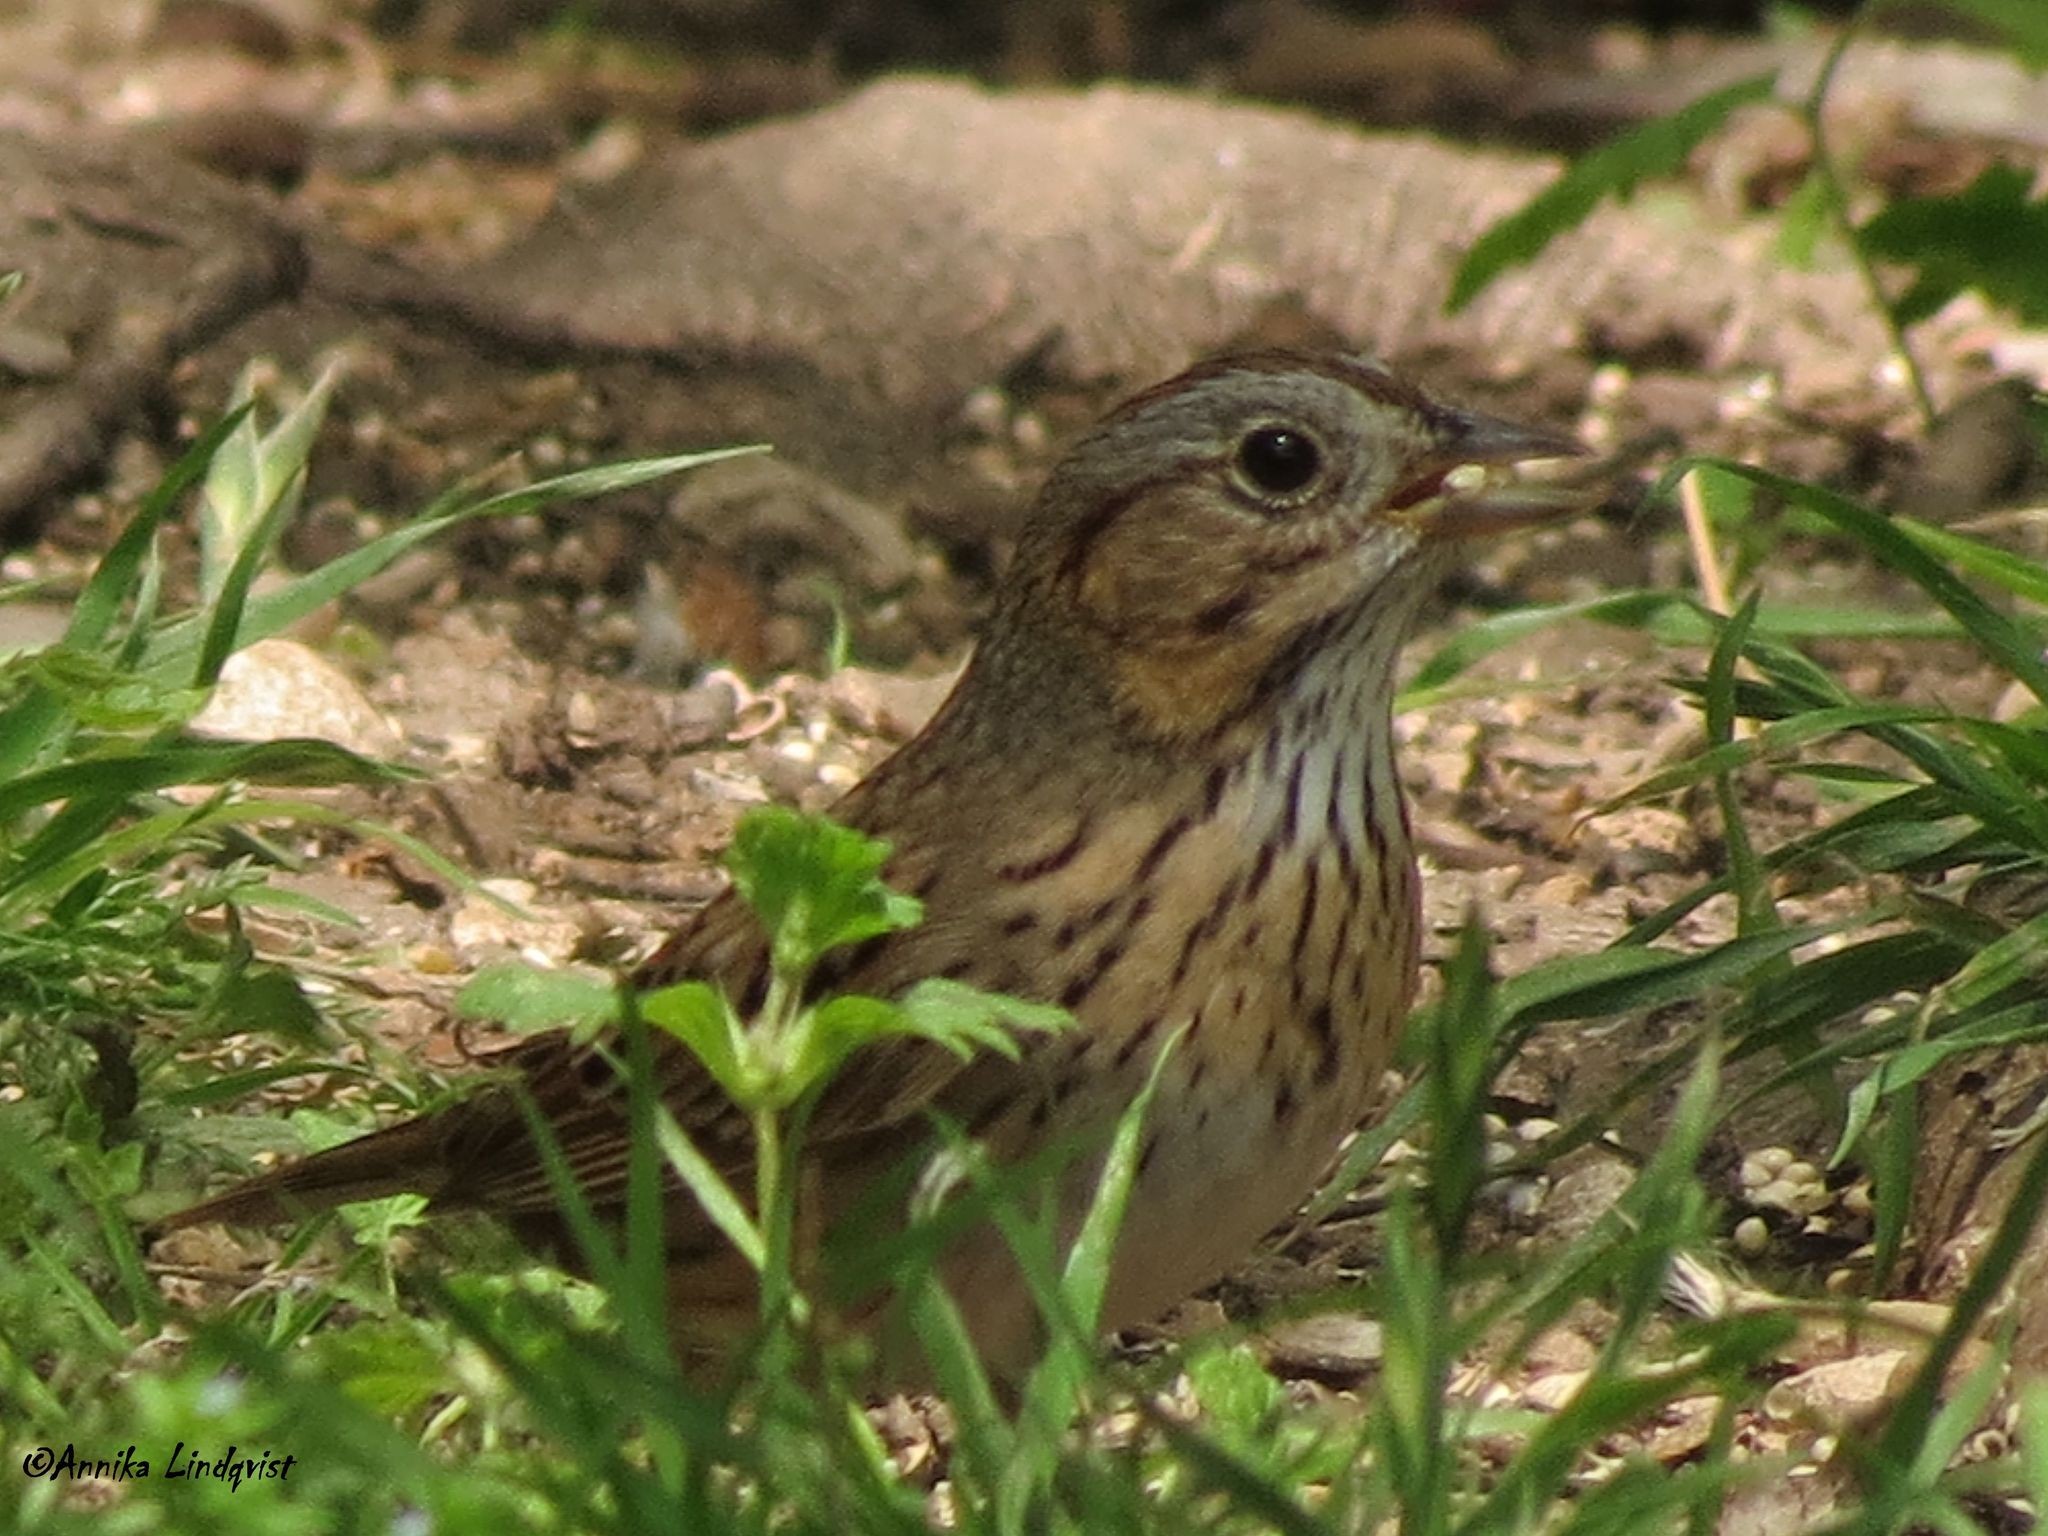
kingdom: Animalia
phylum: Chordata
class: Aves
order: Passeriformes
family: Passerellidae
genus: Melospiza
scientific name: Melospiza lincolnii
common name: Lincoln's sparrow
